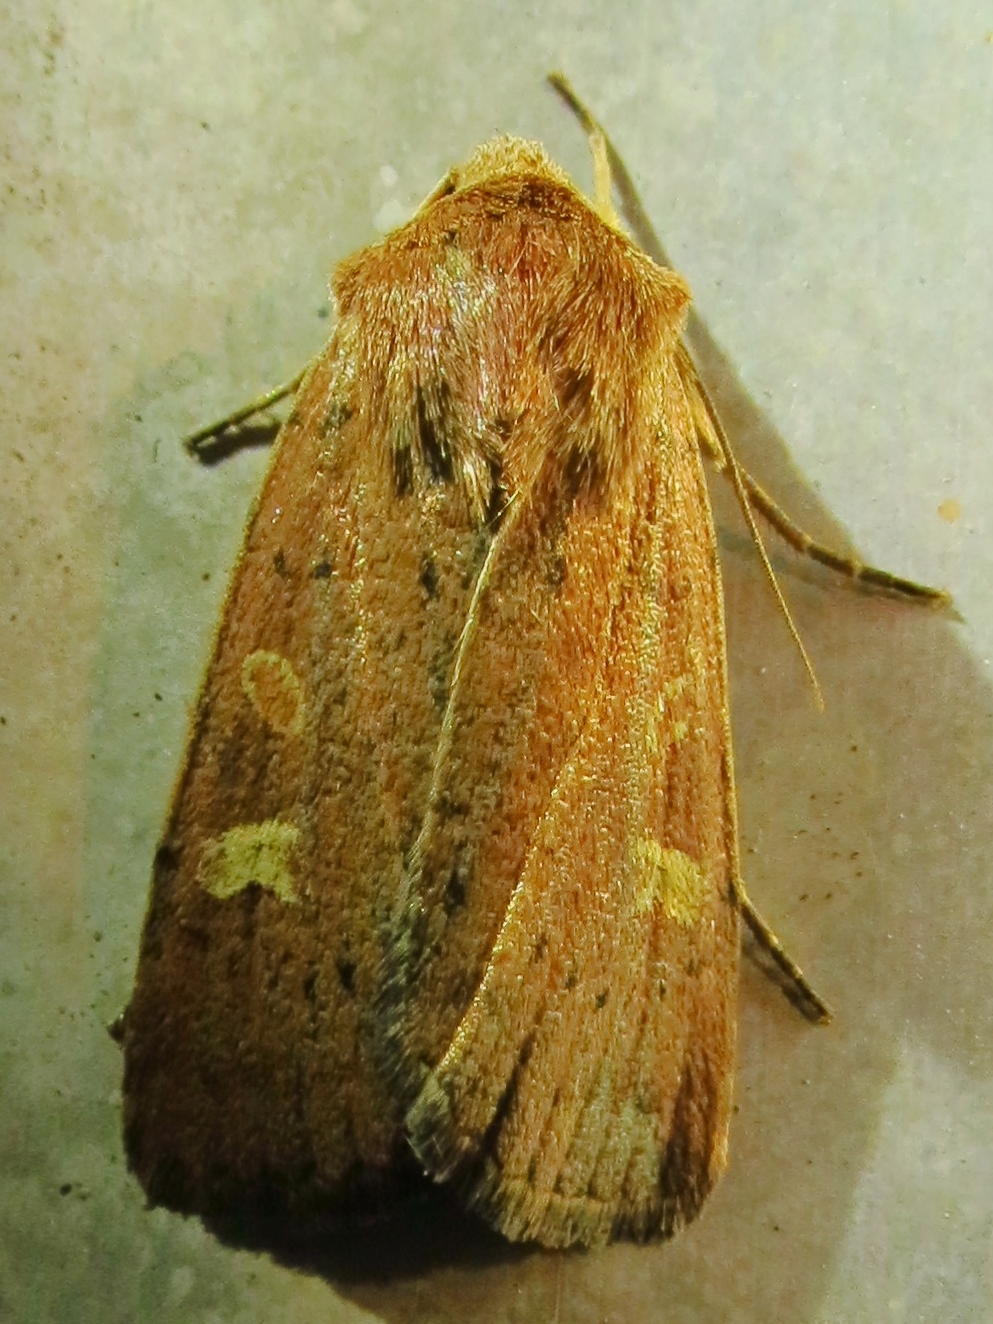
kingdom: Animalia
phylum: Arthropoda
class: Insecta
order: Lepidoptera
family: Noctuidae
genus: Xestia
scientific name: Xestia xanthographa
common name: Square-spot rustic
